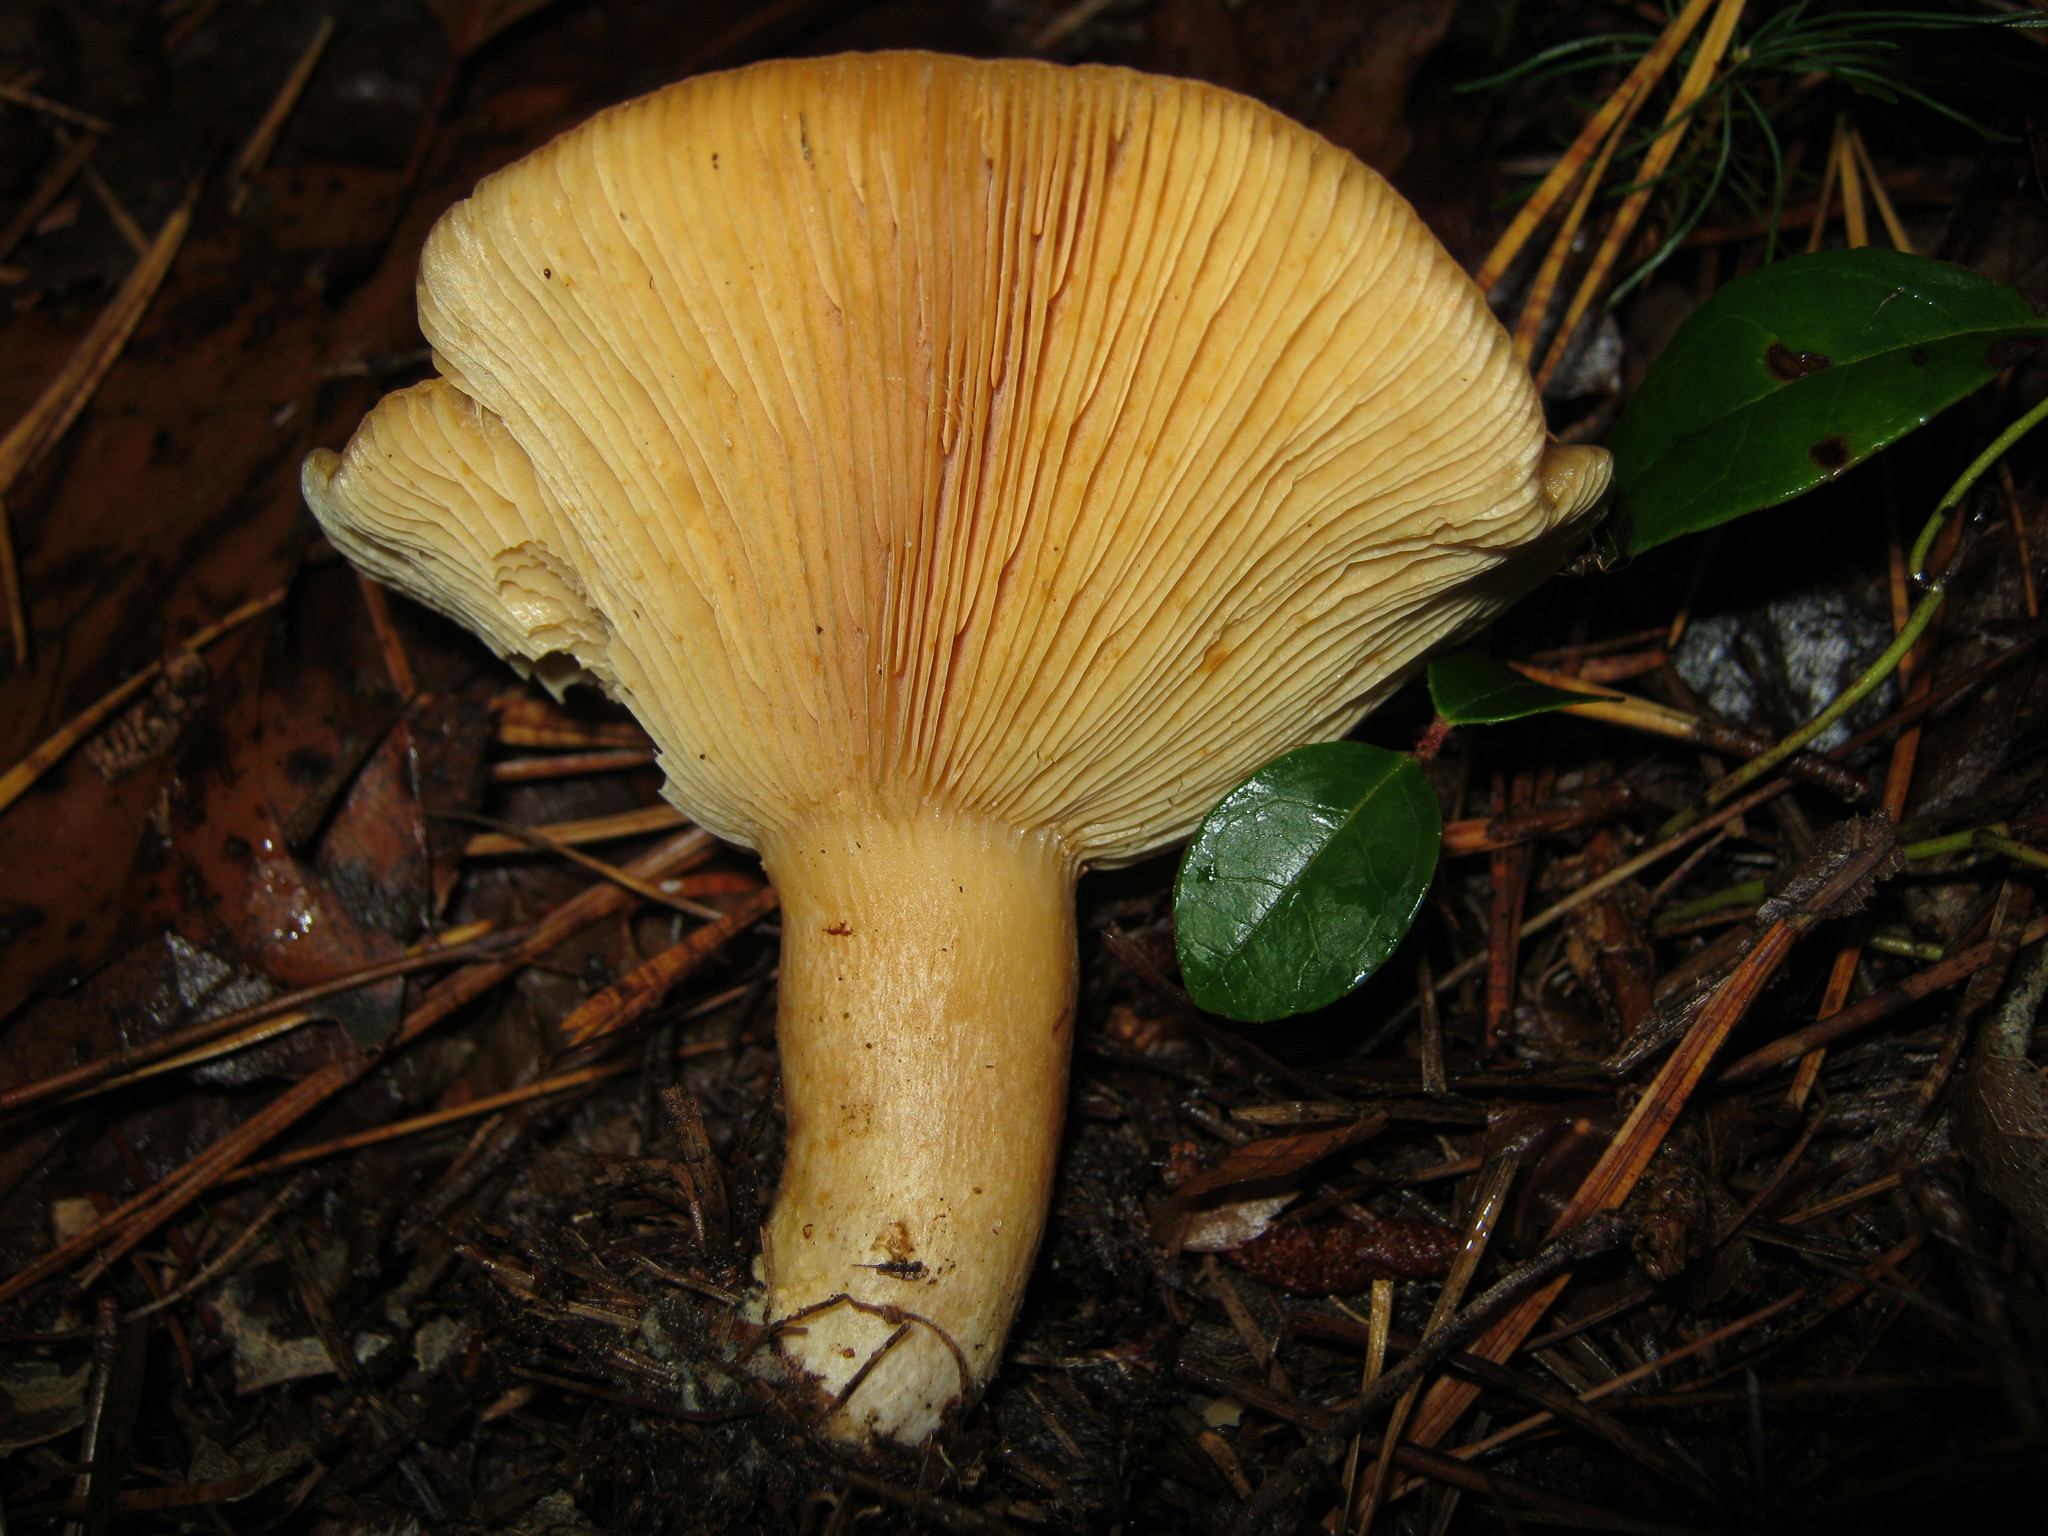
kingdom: Fungi
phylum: Basidiomycota
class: Agaricomycetes
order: Russulales
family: Russulaceae
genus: Lactarius
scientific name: Lactarius croceus
